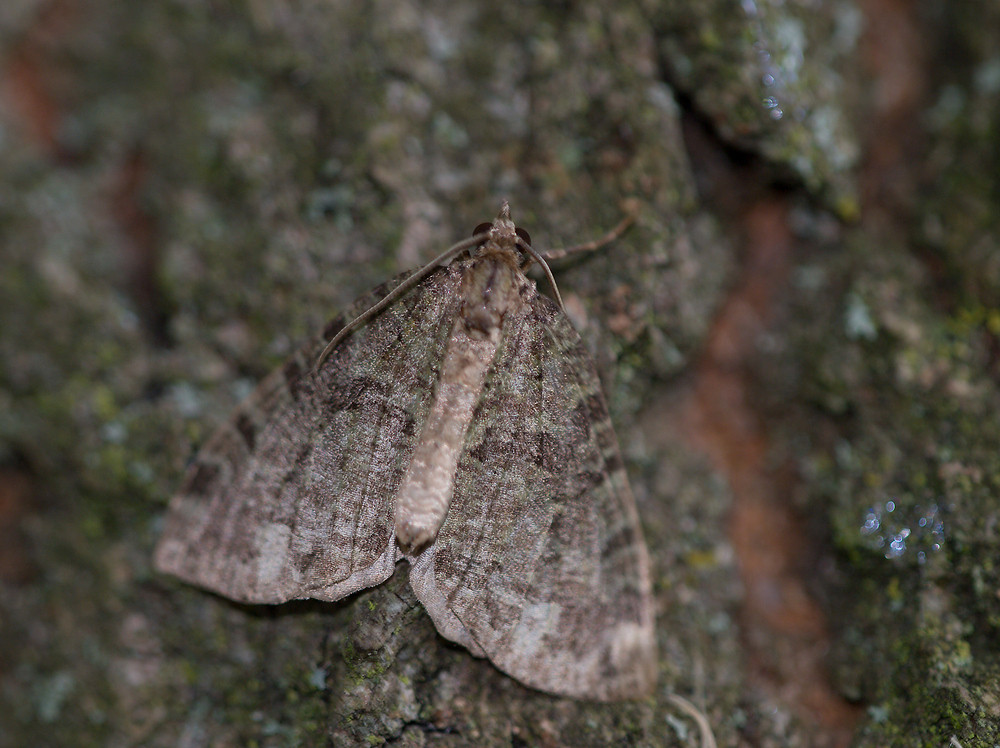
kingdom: Animalia
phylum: Arthropoda
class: Insecta
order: Lepidoptera
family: Geometridae
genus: Hydriomena
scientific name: Hydriomena furcata
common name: July highflyer
